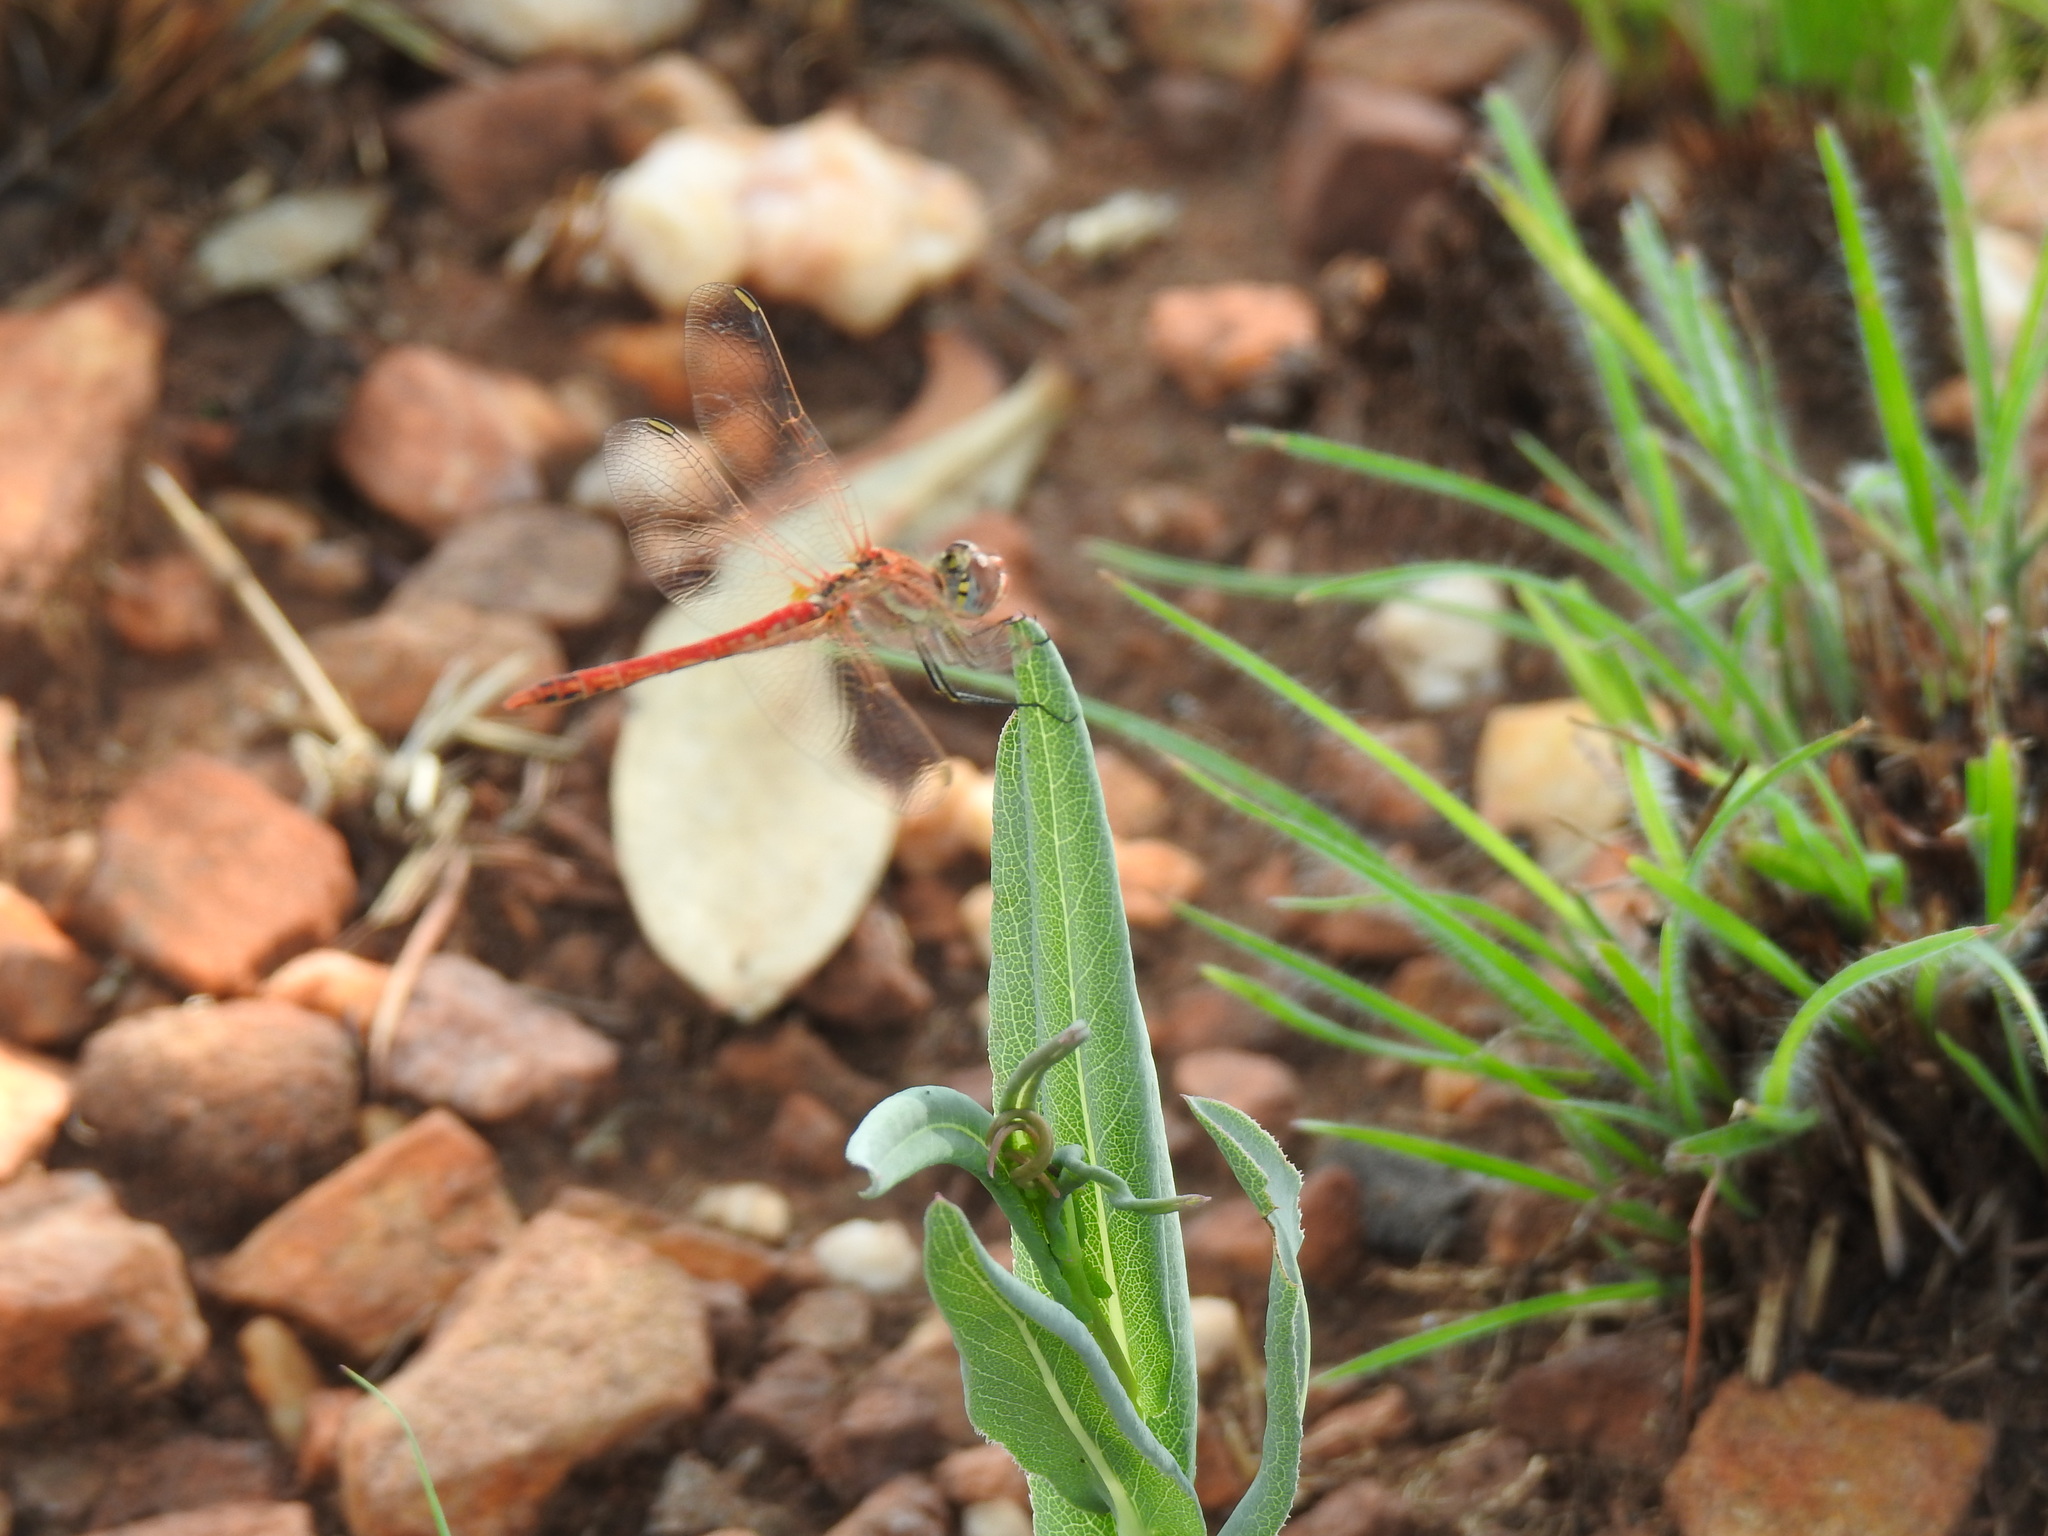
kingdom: Animalia
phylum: Arthropoda
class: Insecta
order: Odonata
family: Libellulidae
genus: Sympetrum
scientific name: Sympetrum fonscolombii
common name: Red-veined darter
